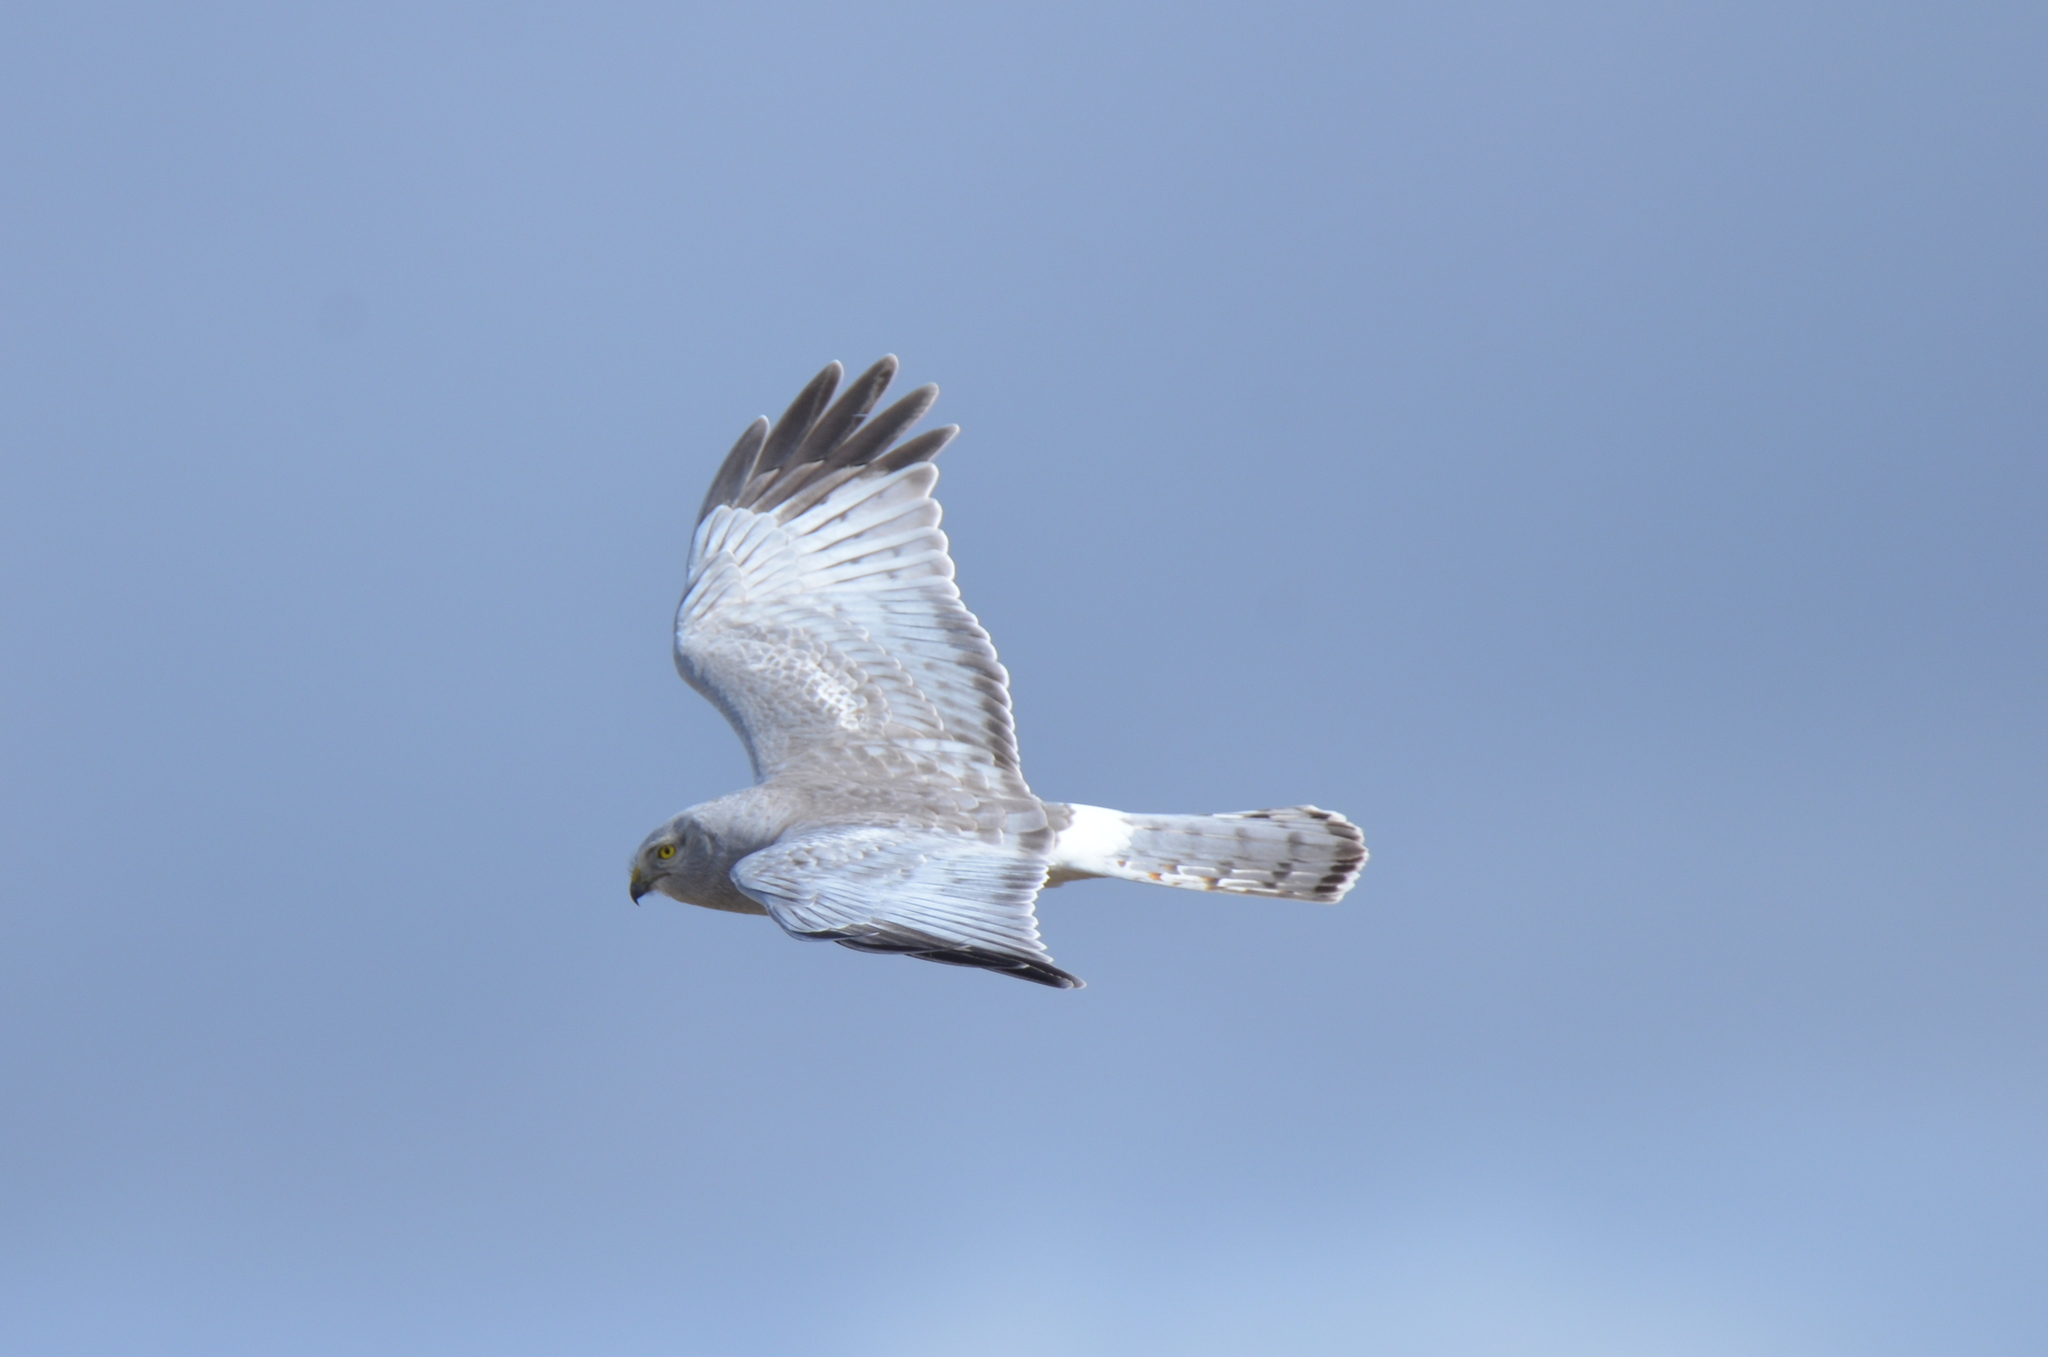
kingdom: Animalia
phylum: Chordata
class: Aves
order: Accipitriformes
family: Accipitridae
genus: Circus
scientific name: Circus cyaneus
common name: Hen harrier
